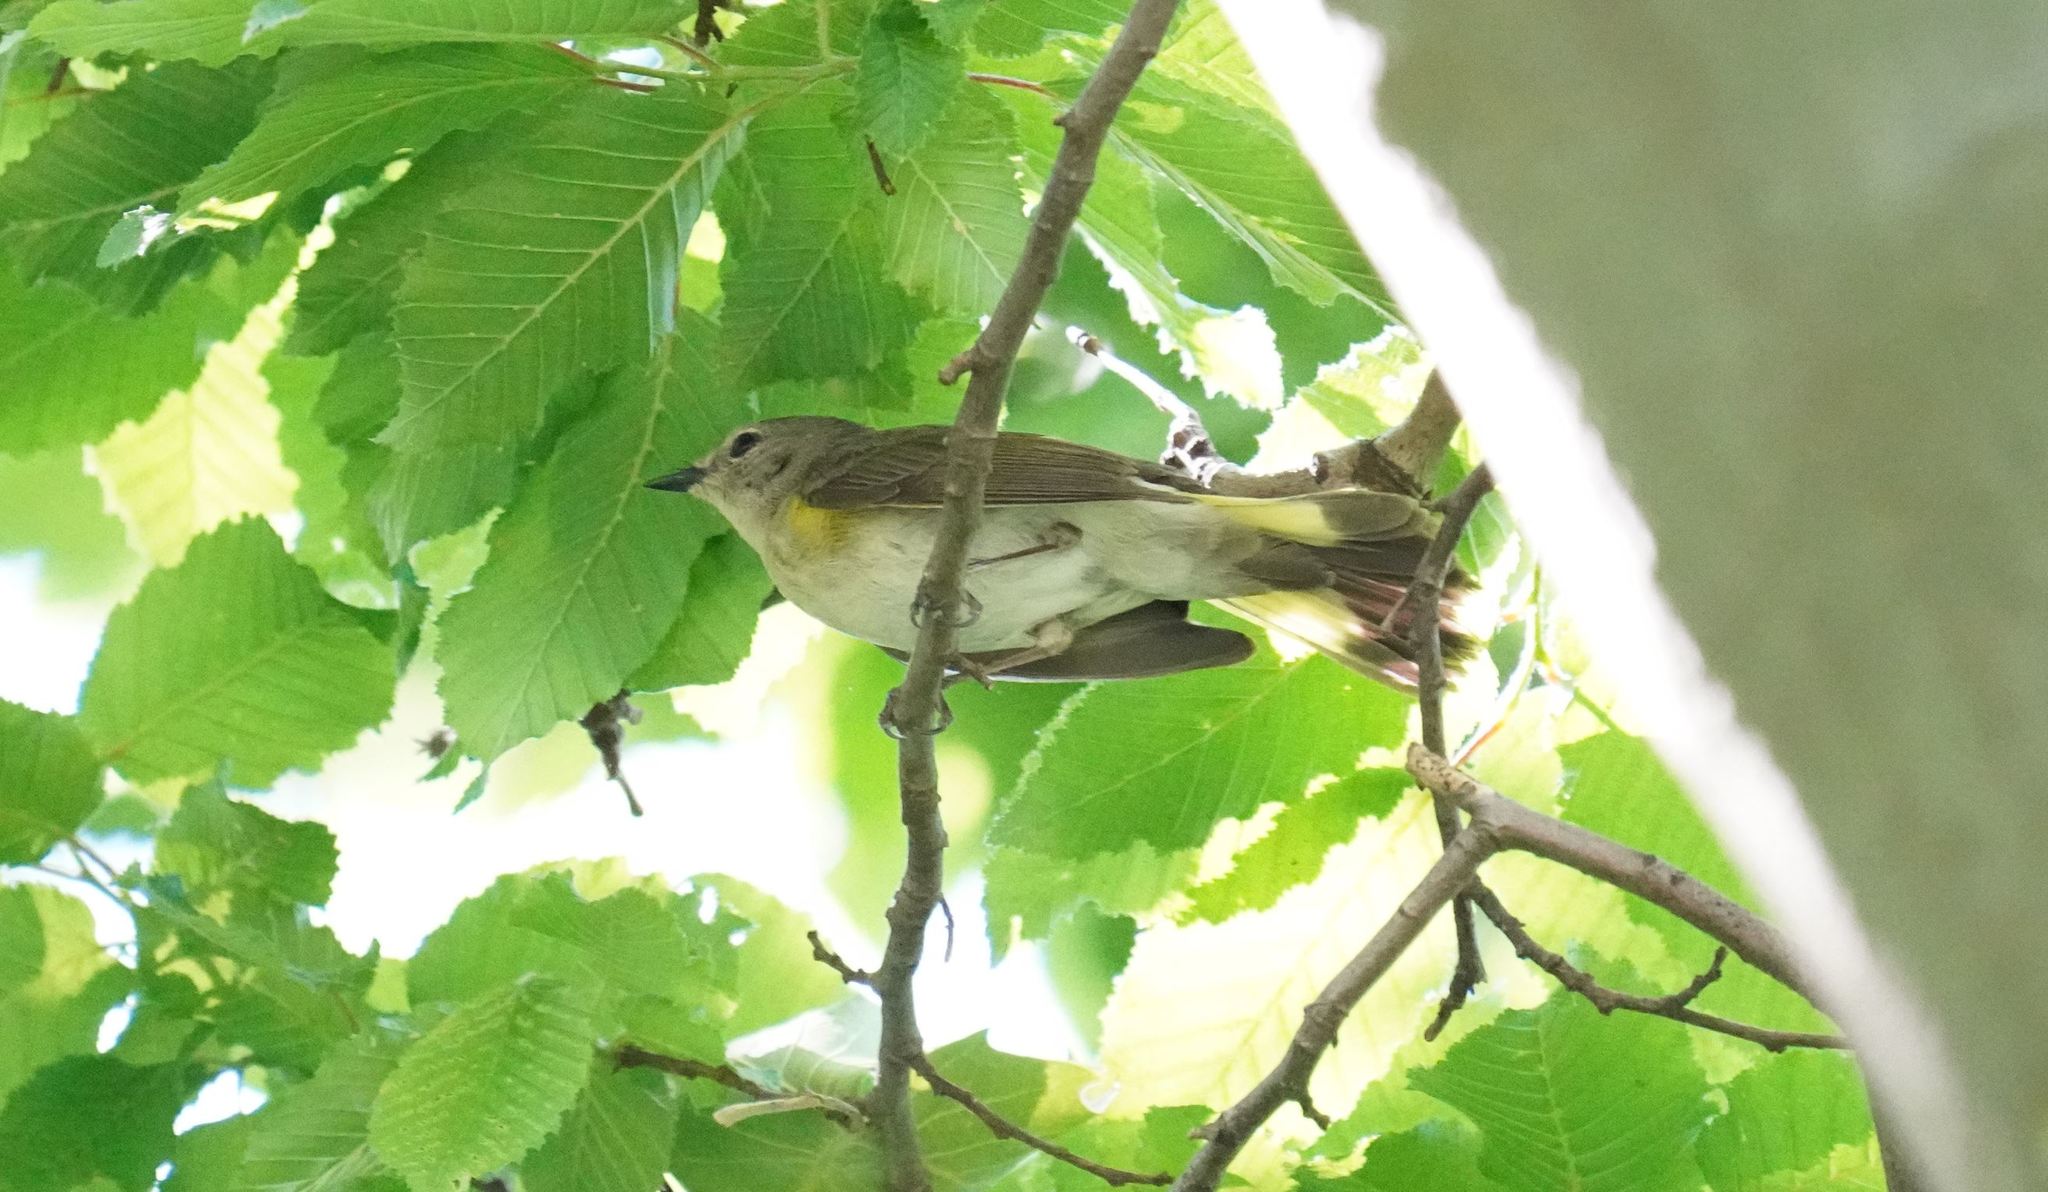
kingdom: Animalia
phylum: Chordata
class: Aves
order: Passeriformes
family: Parulidae
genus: Setophaga
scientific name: Setophaga ruticilla
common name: American redstart
